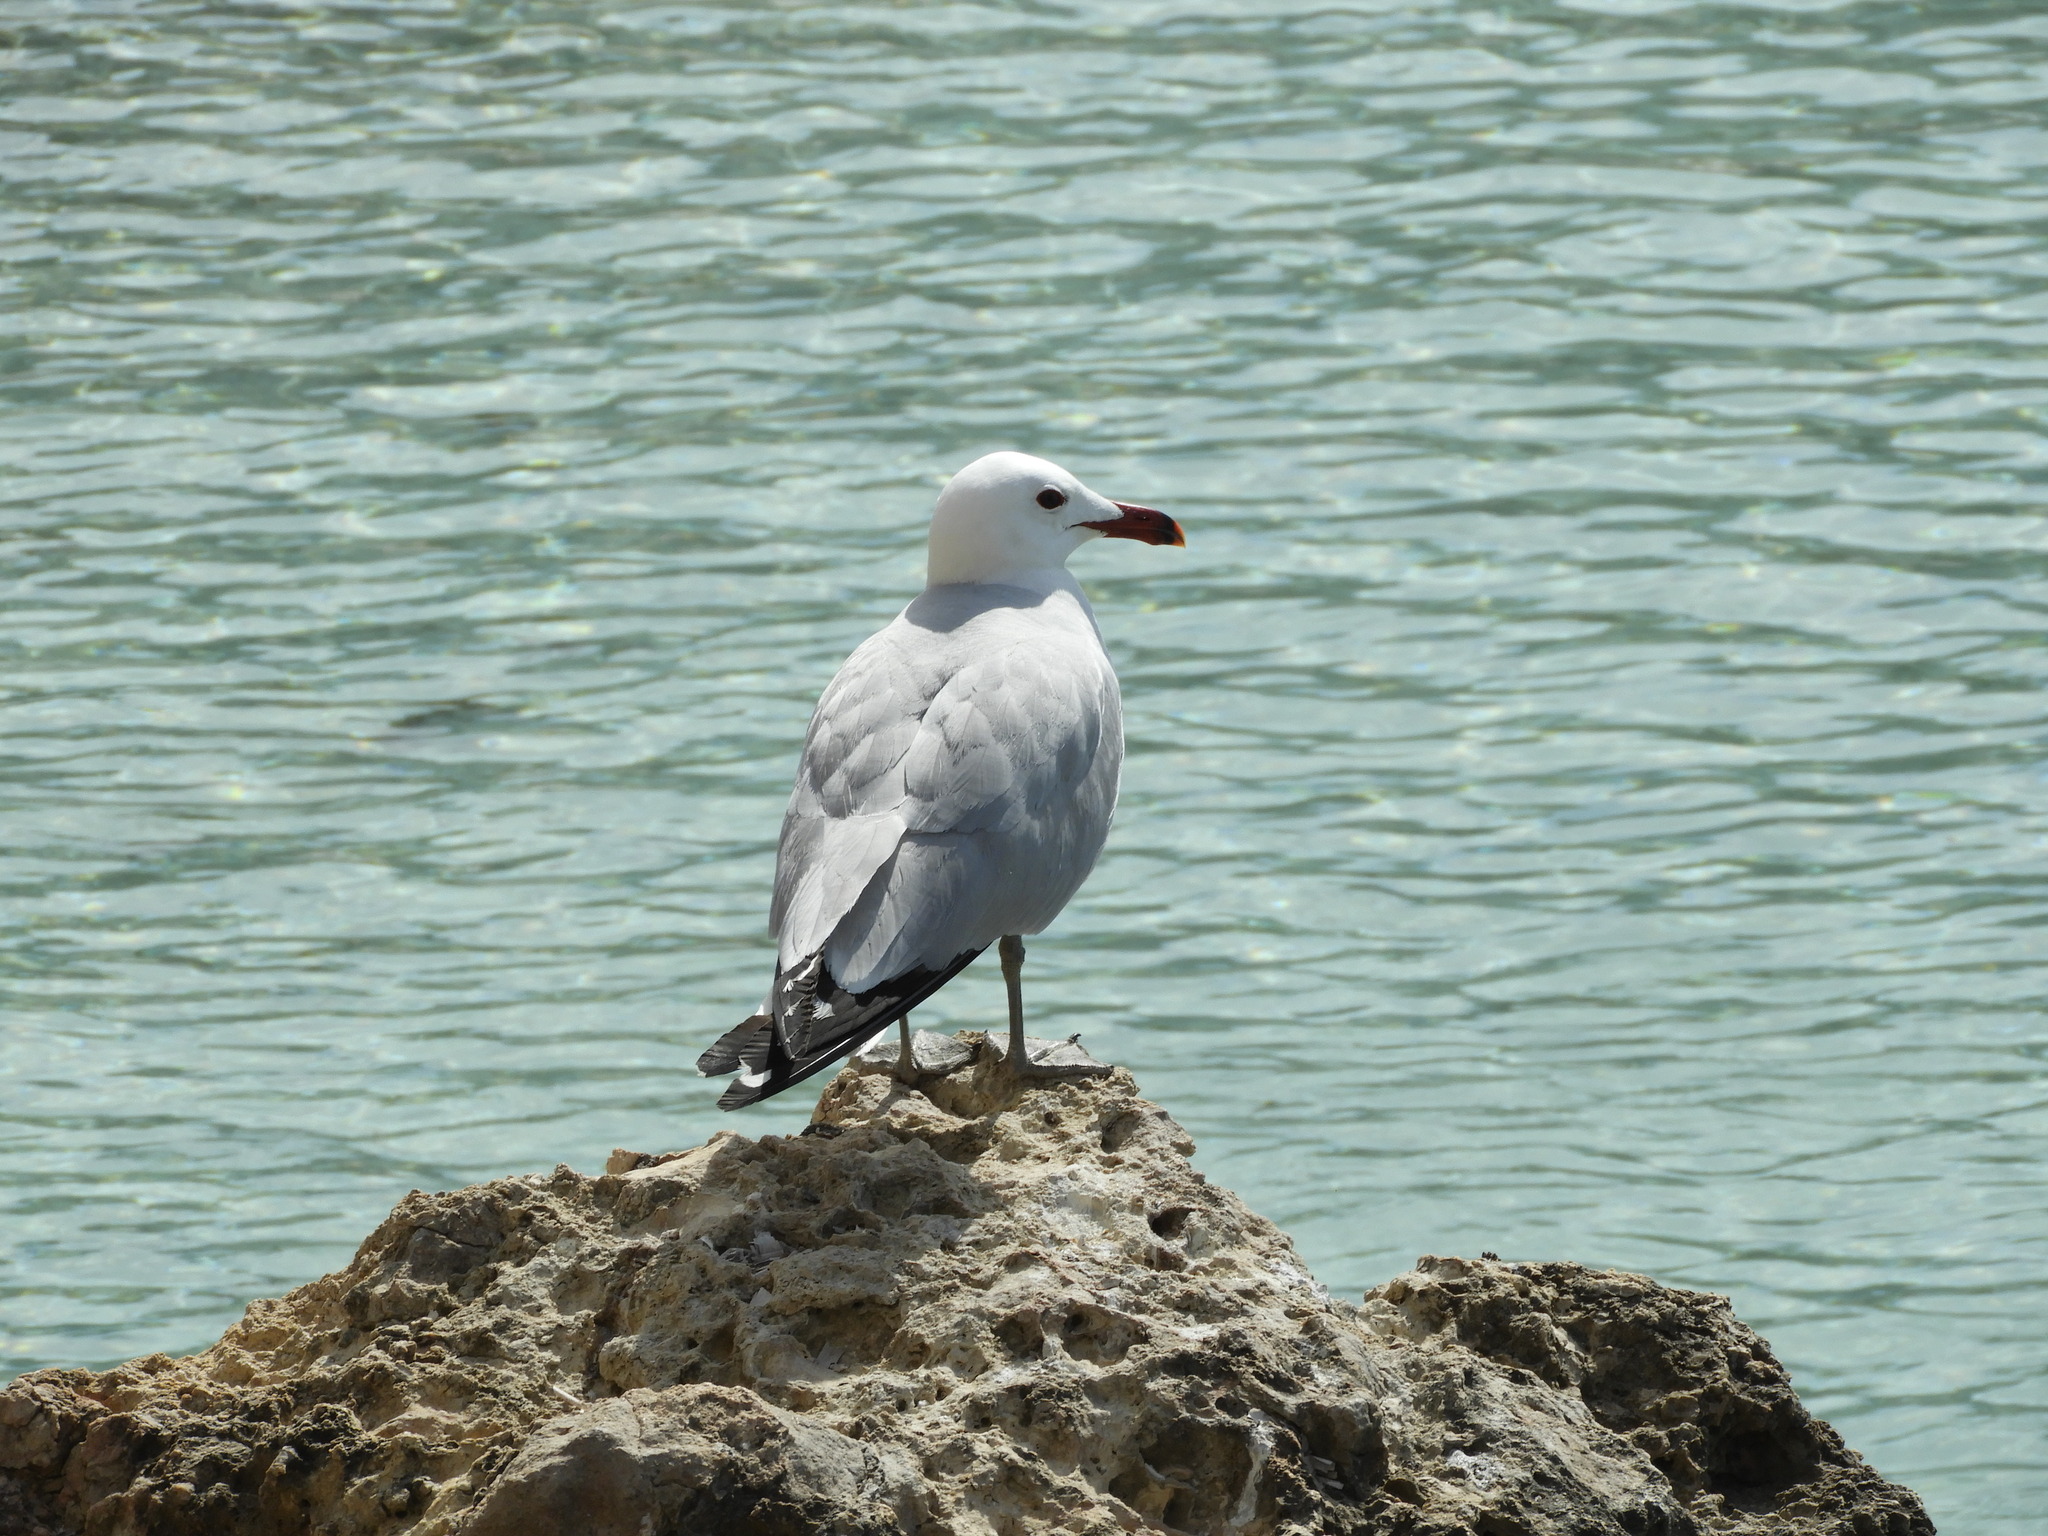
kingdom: Animalia
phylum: Chordata
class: Aves
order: Charadriiformes
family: Laridae
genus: Ichthyaetus
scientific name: Ichthyaetus audouinii
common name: Audouin's gull
